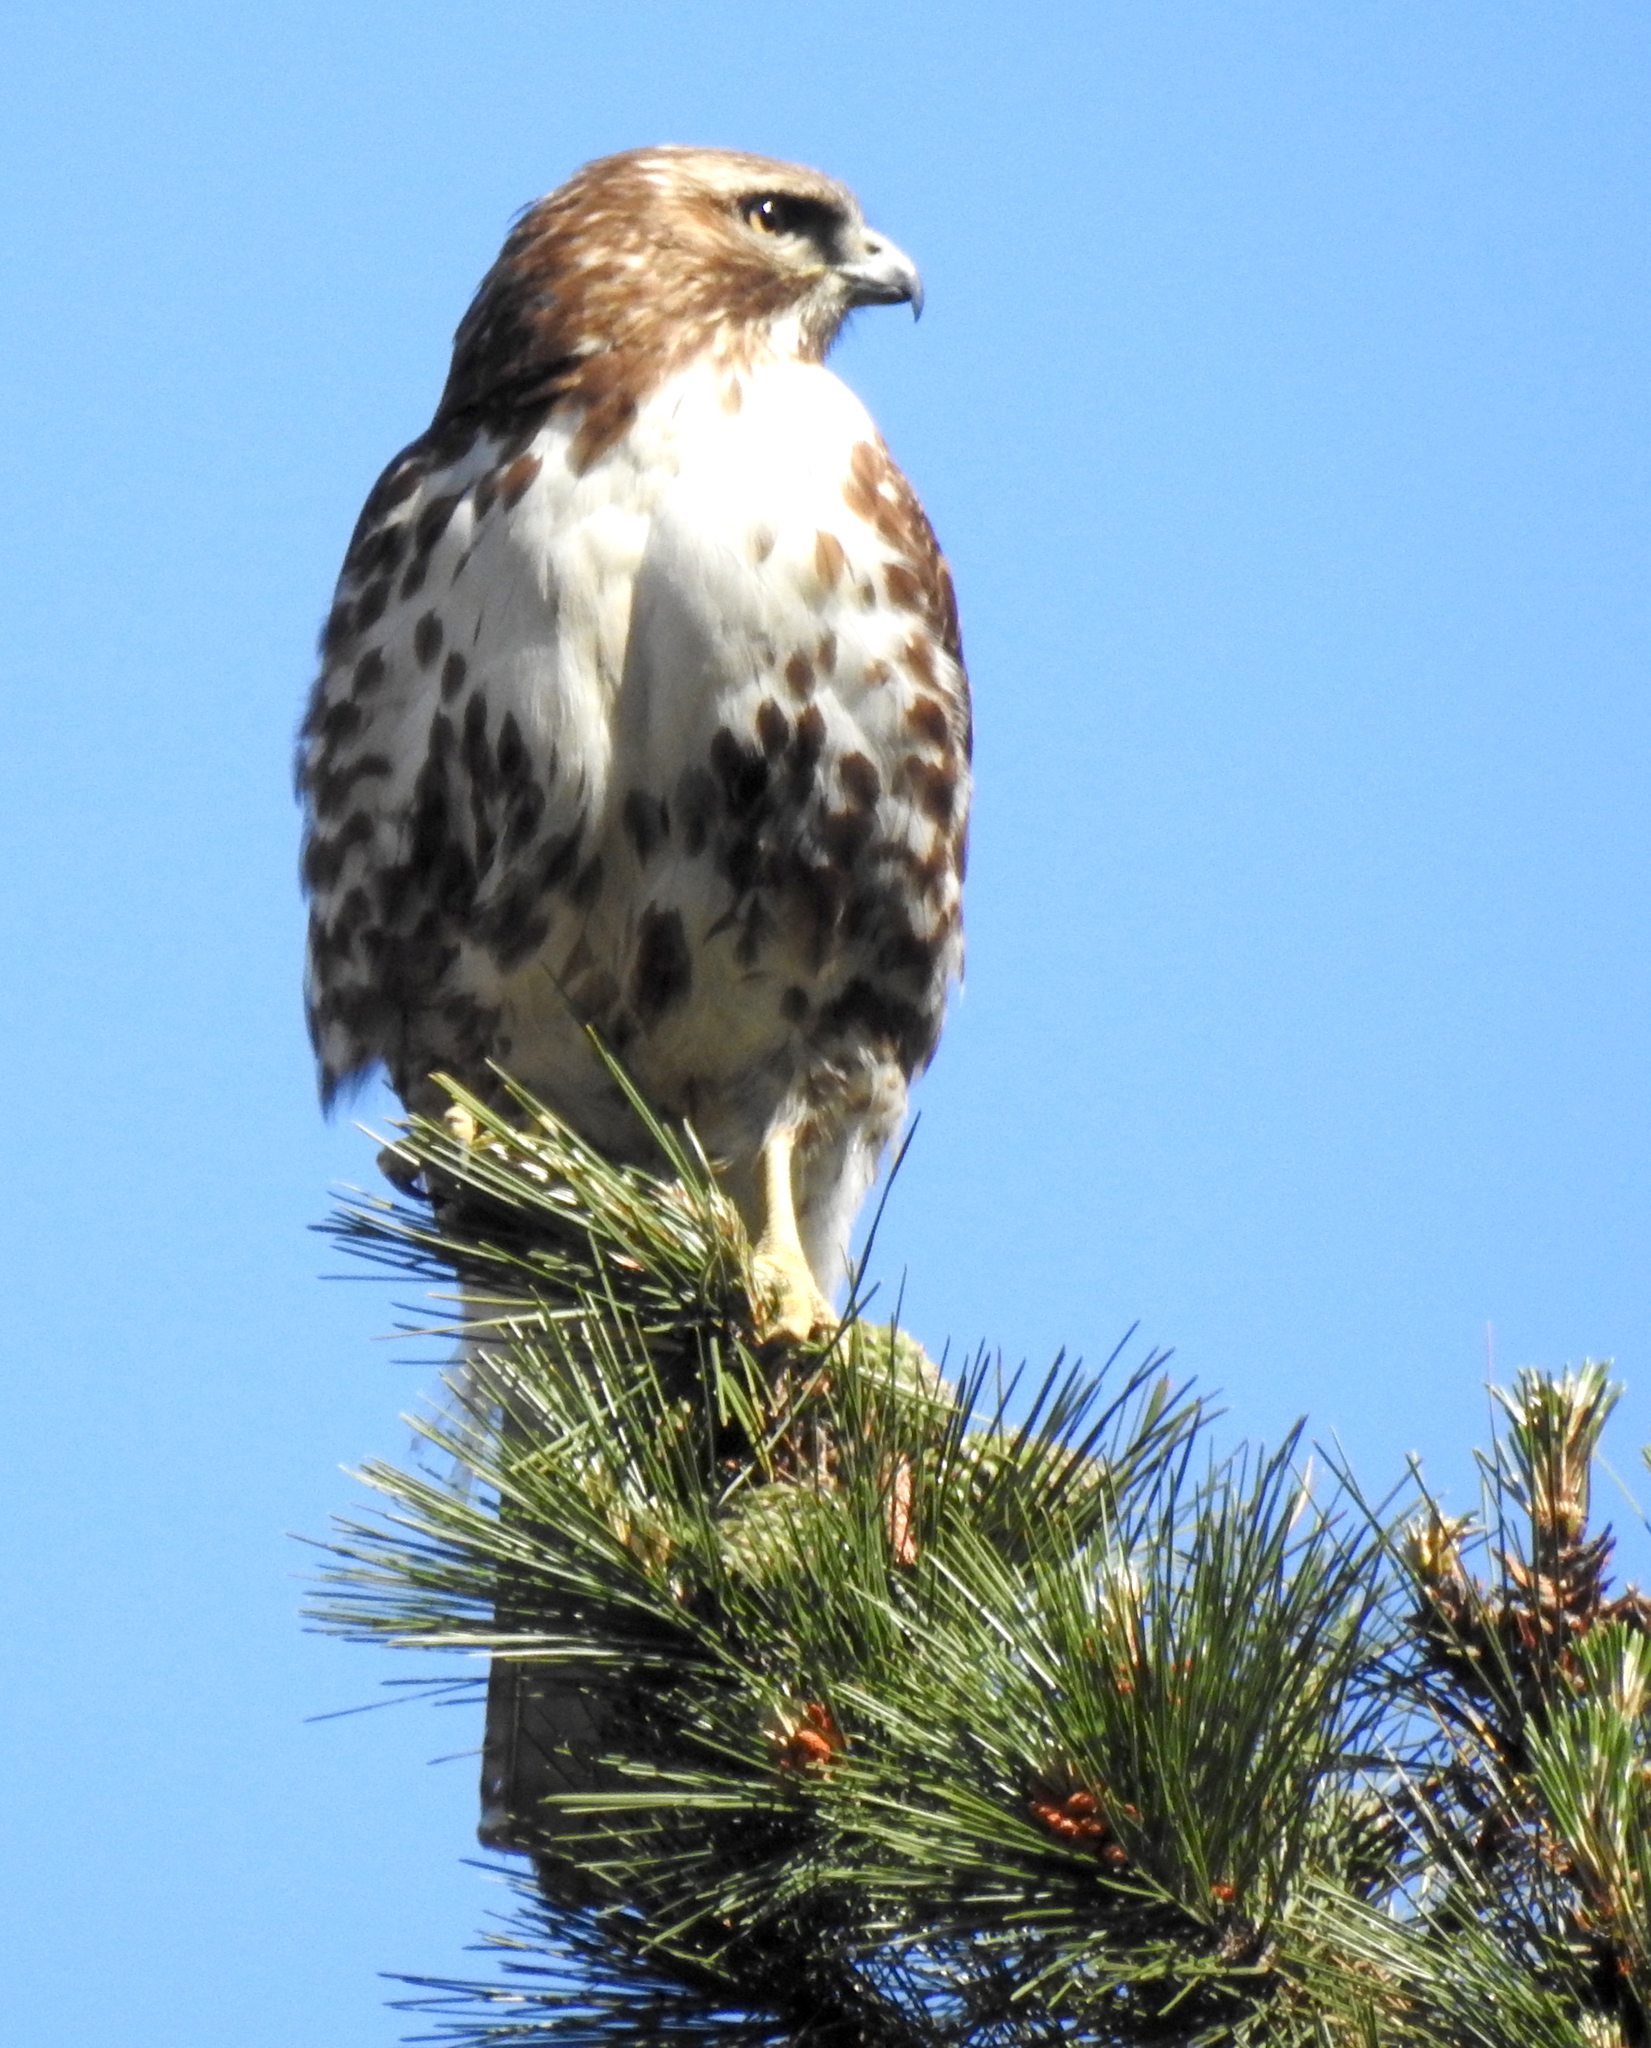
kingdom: Animalia
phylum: Chordata
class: Aves
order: Accipitriformes
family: Accipitridae
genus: Buteo
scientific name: Buteo jamaicensis
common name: Red-tailed hawk
